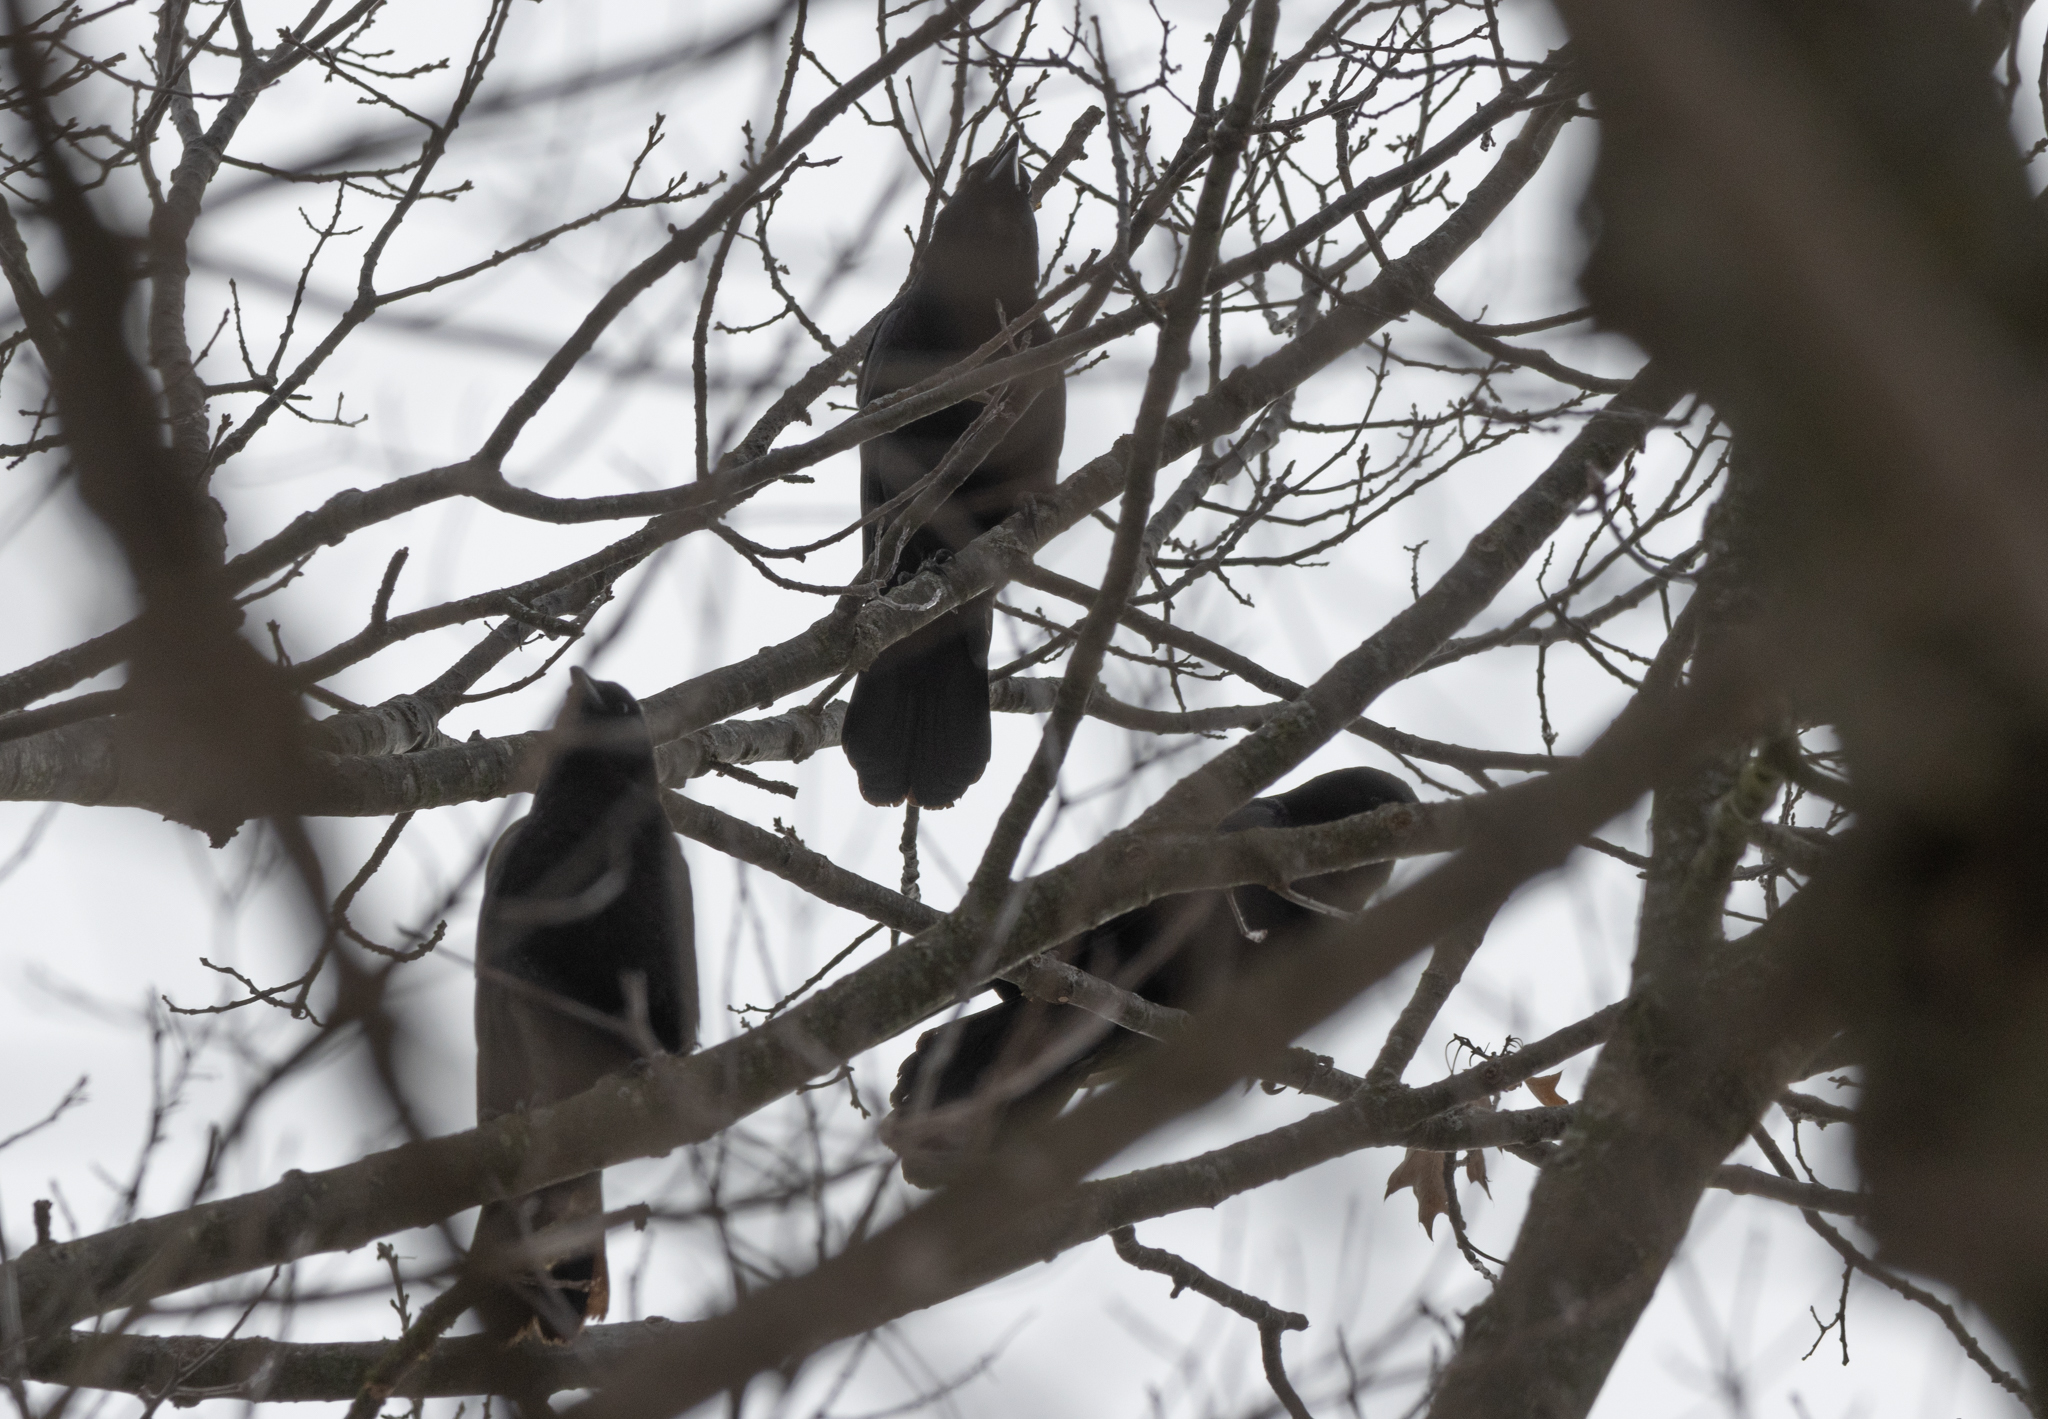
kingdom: Animalia
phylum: Chordata
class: Aves
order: Passeriformes
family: Corvidae
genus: Corvus
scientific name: Corvus brachyrhynchos
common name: American crow
